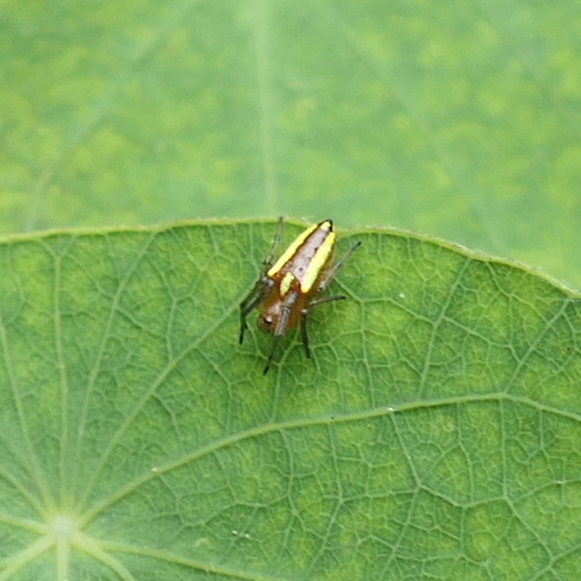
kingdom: Animalia
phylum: Arthropoda
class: Arachnida
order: Araneae
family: Araneidae
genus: Alpaida
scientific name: Alpaida bicornuta
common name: Orb weavers
